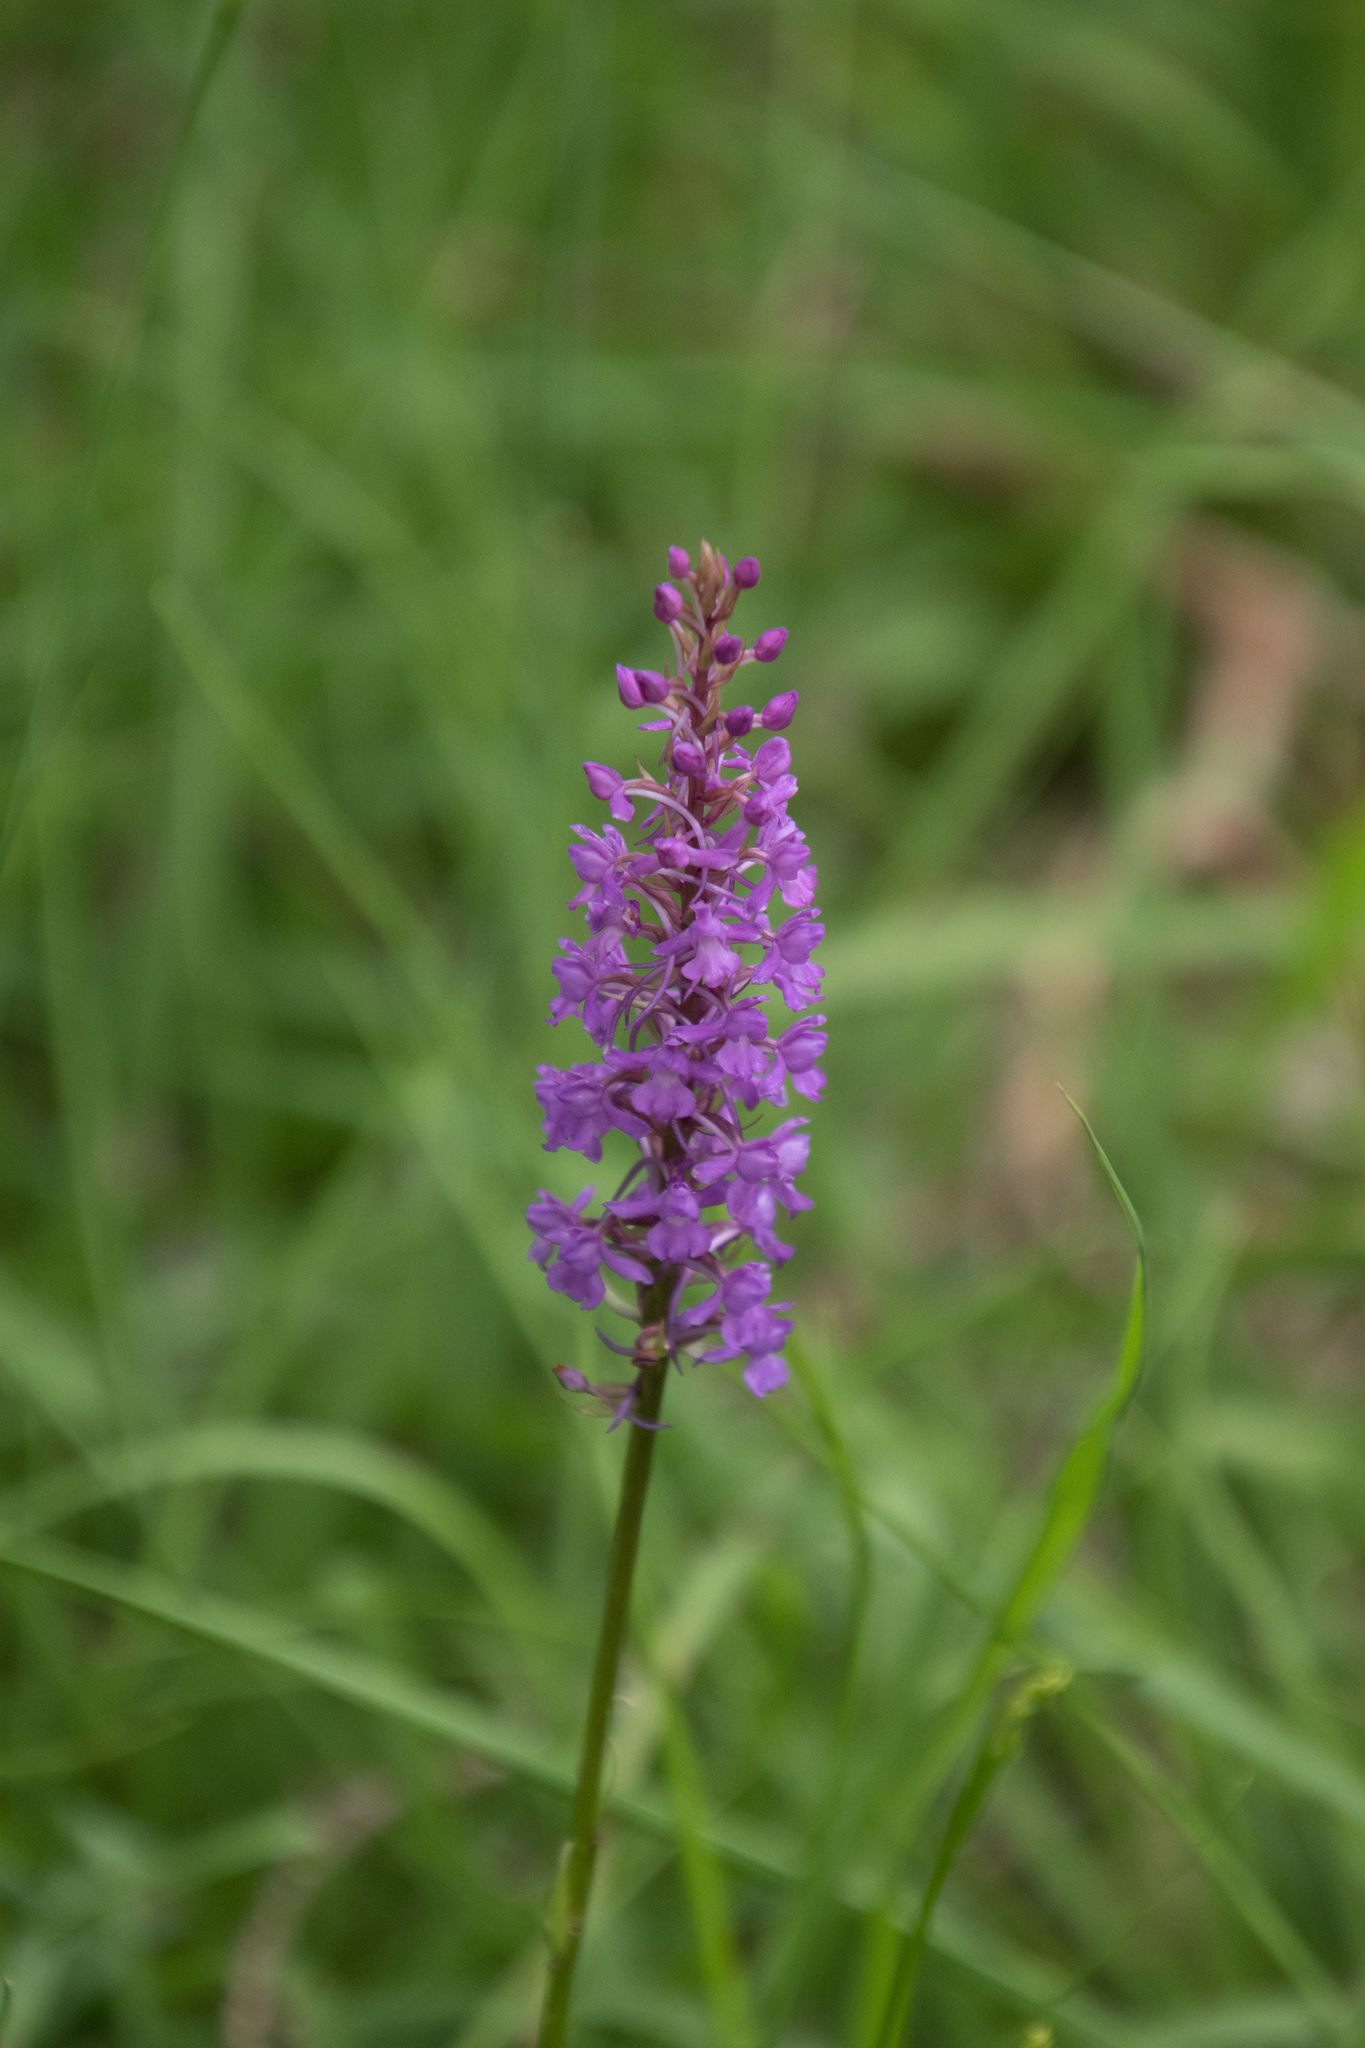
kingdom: Plantae
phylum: Tracheophyta
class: Liliopsida
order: Asparagales
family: Orchidaceae
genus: Gymnadenia
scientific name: Gymnadenia conopsea
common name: Fragrant orchid
